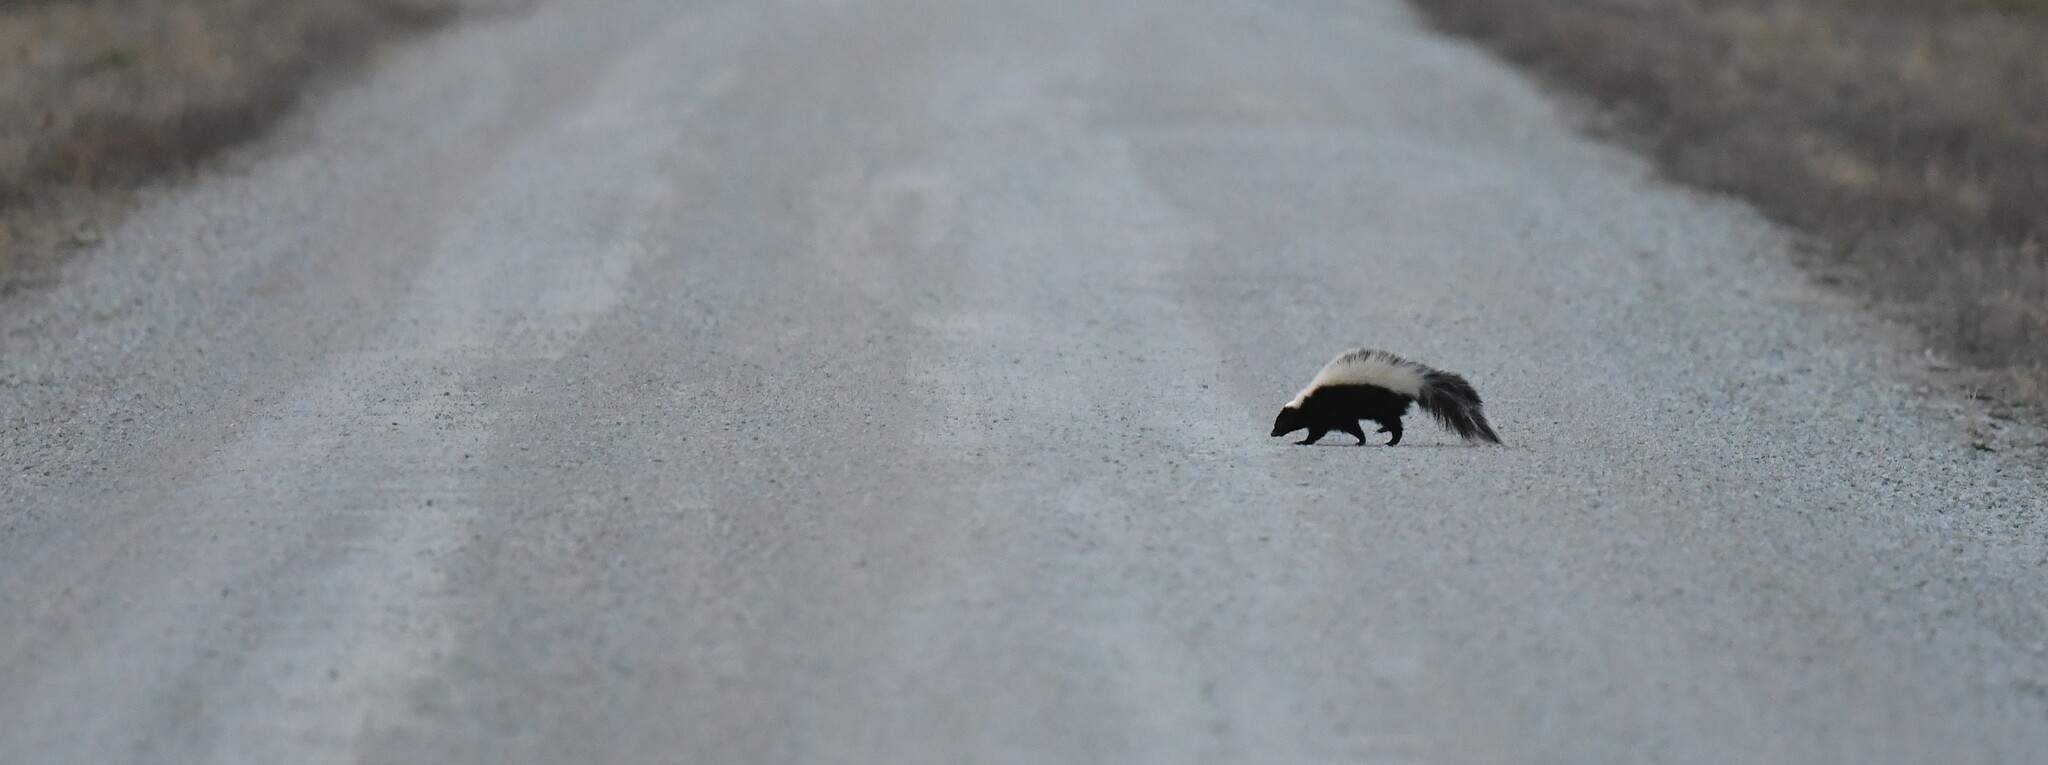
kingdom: Animalia
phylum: Chordata
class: Mammalia
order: Carnivora
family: Mephitidae
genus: Mephitis
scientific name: Mephitis mephitis
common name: Striped skunk
